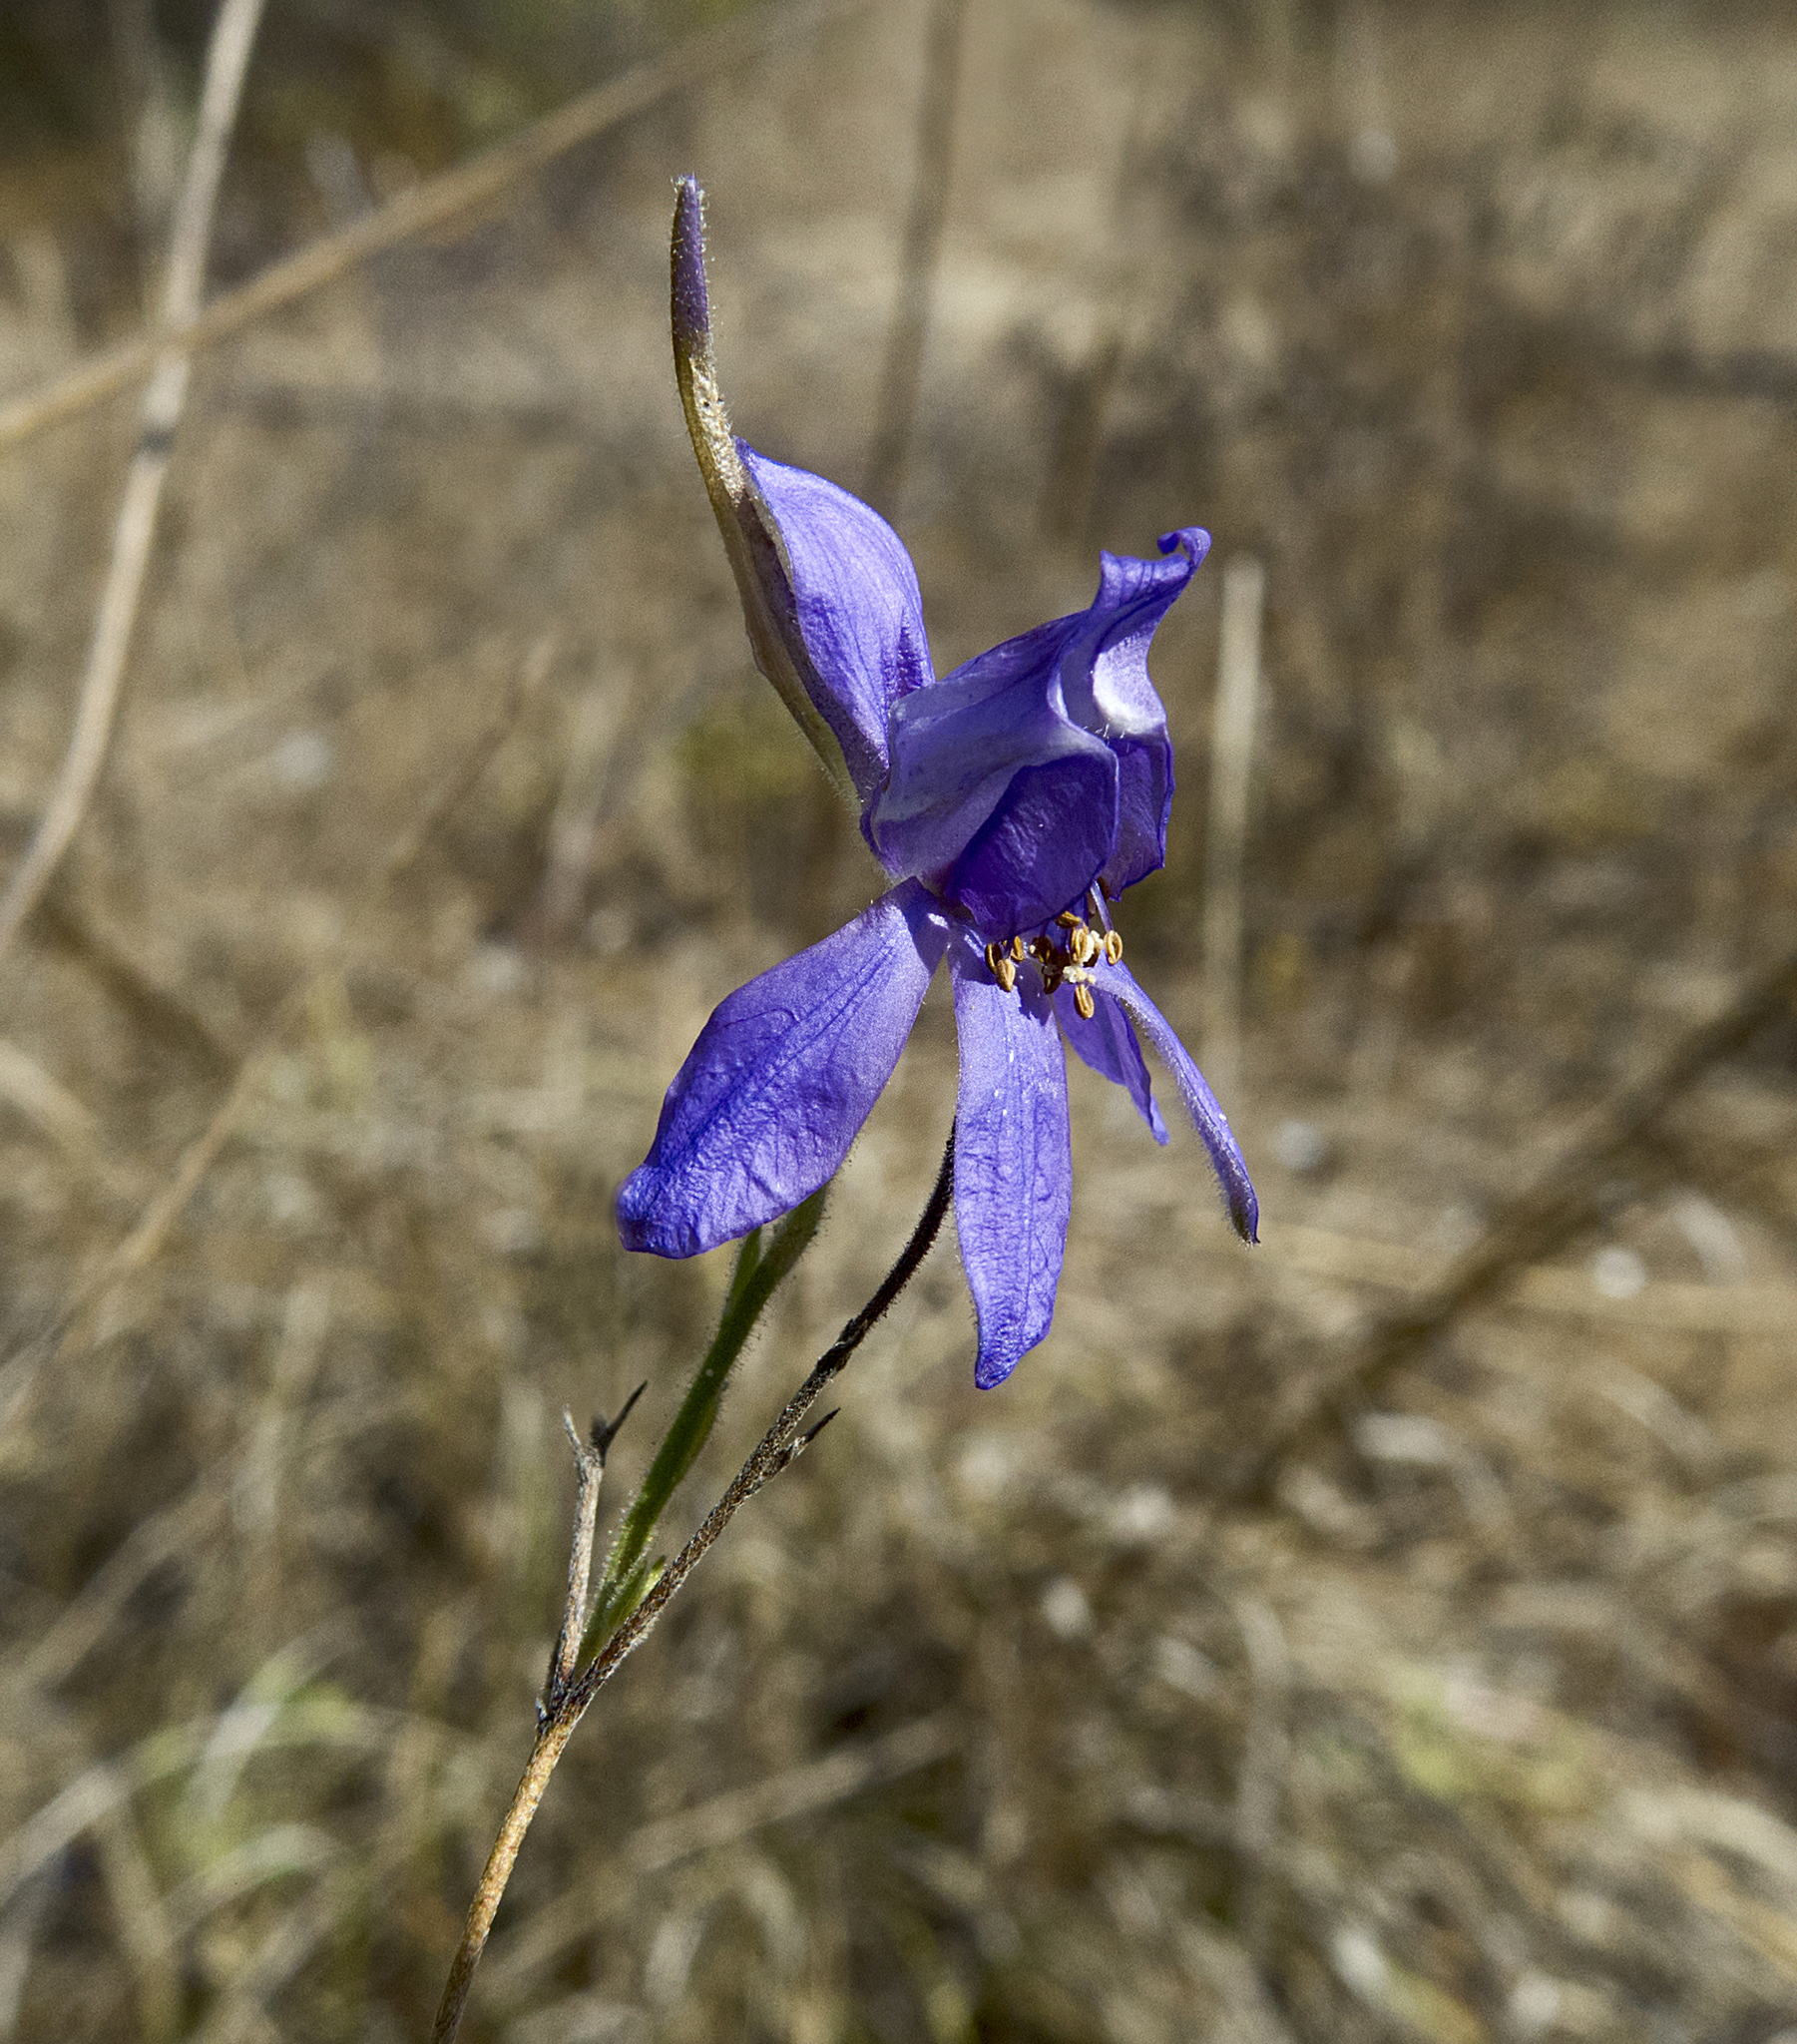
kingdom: Plantae
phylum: Tracheophyta
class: Magnoliopsida
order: Ranunculales
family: Ranunculaceae
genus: Delphinium
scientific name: Delphinium consolida
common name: Branching larkspur
